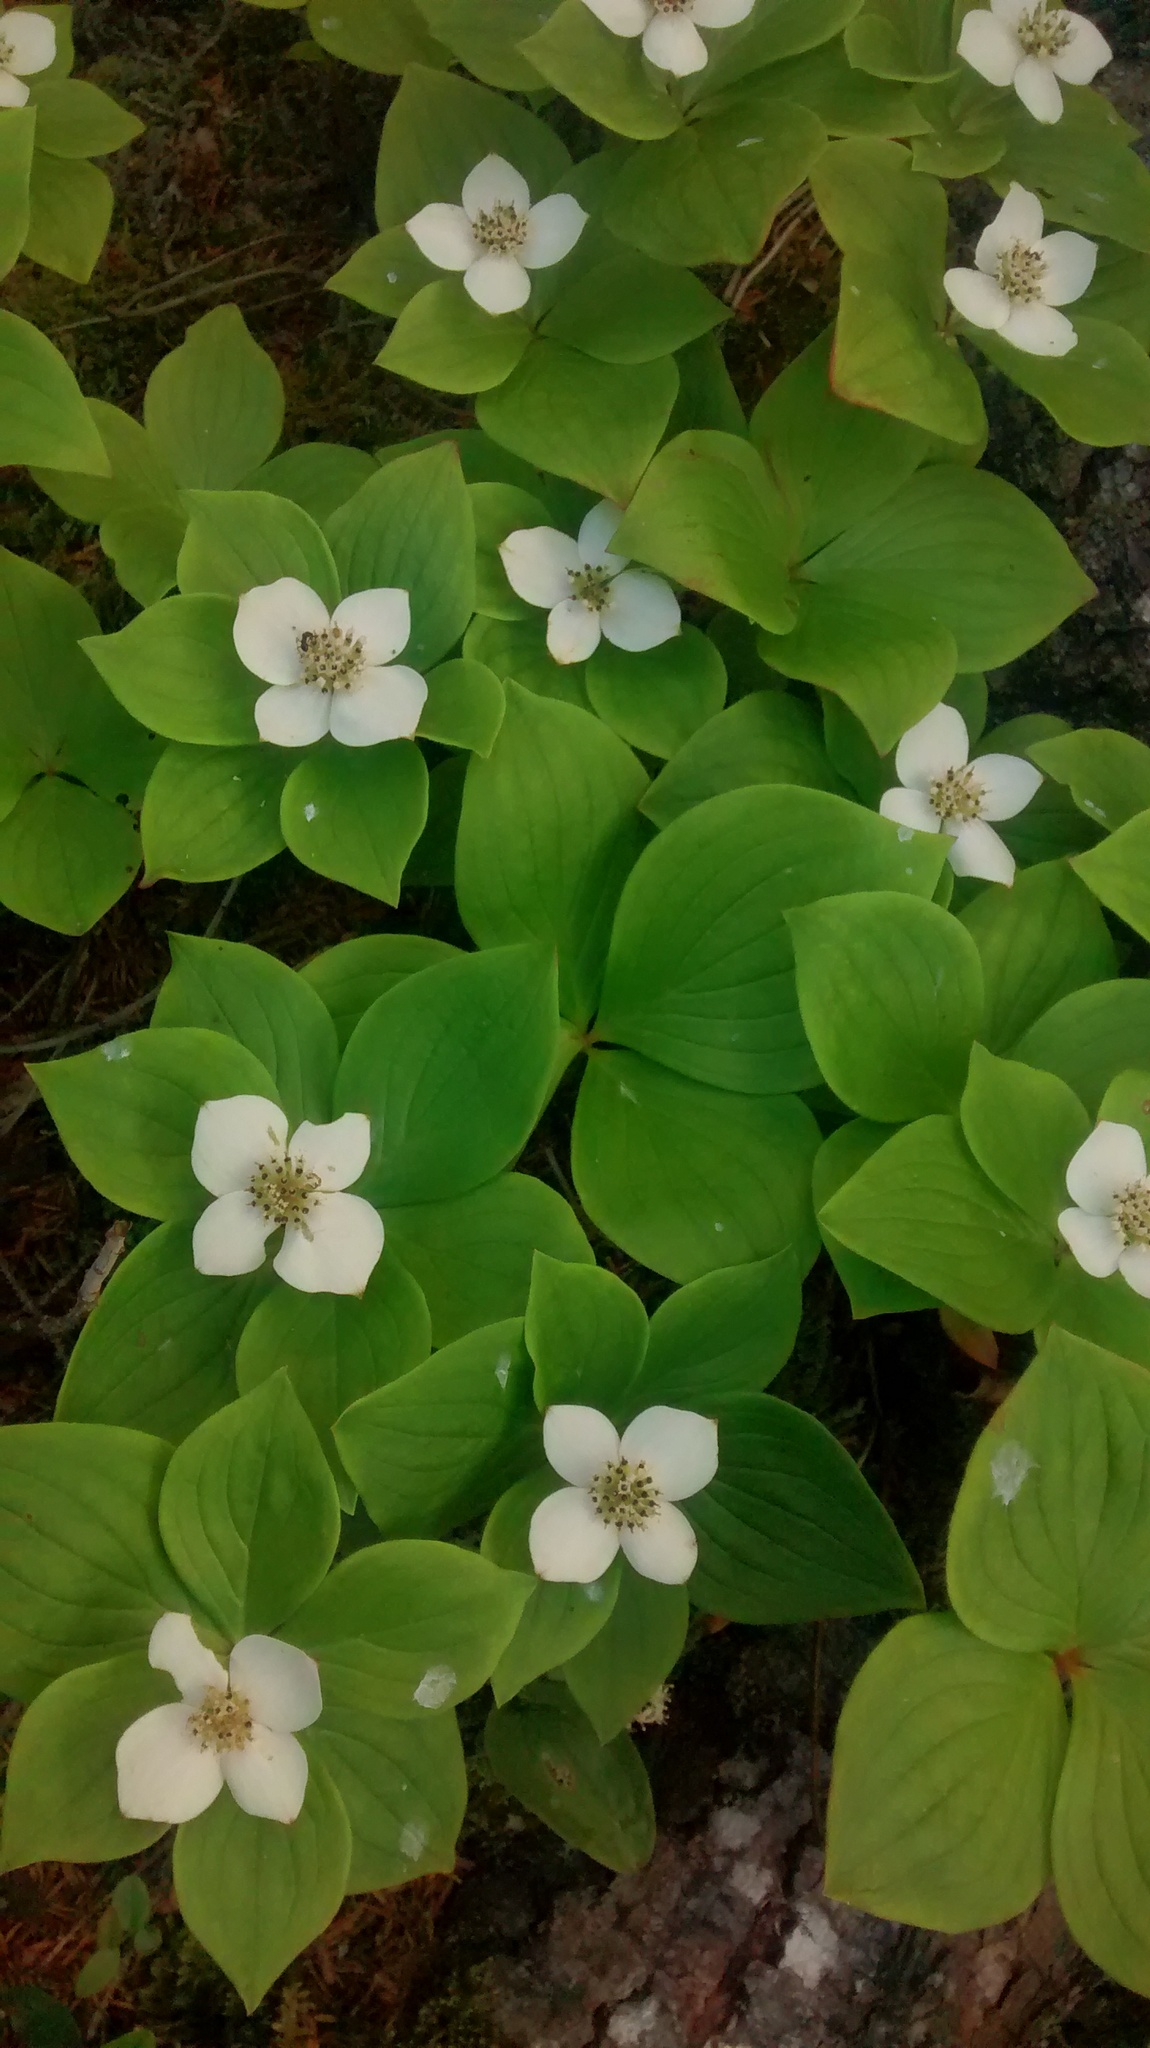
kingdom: Plantae
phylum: Tracheophyta
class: Magnoliopsida
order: Cornales
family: Cornaceae
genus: Cornus
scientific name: Cornus canadensis
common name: Creeping dogwood
